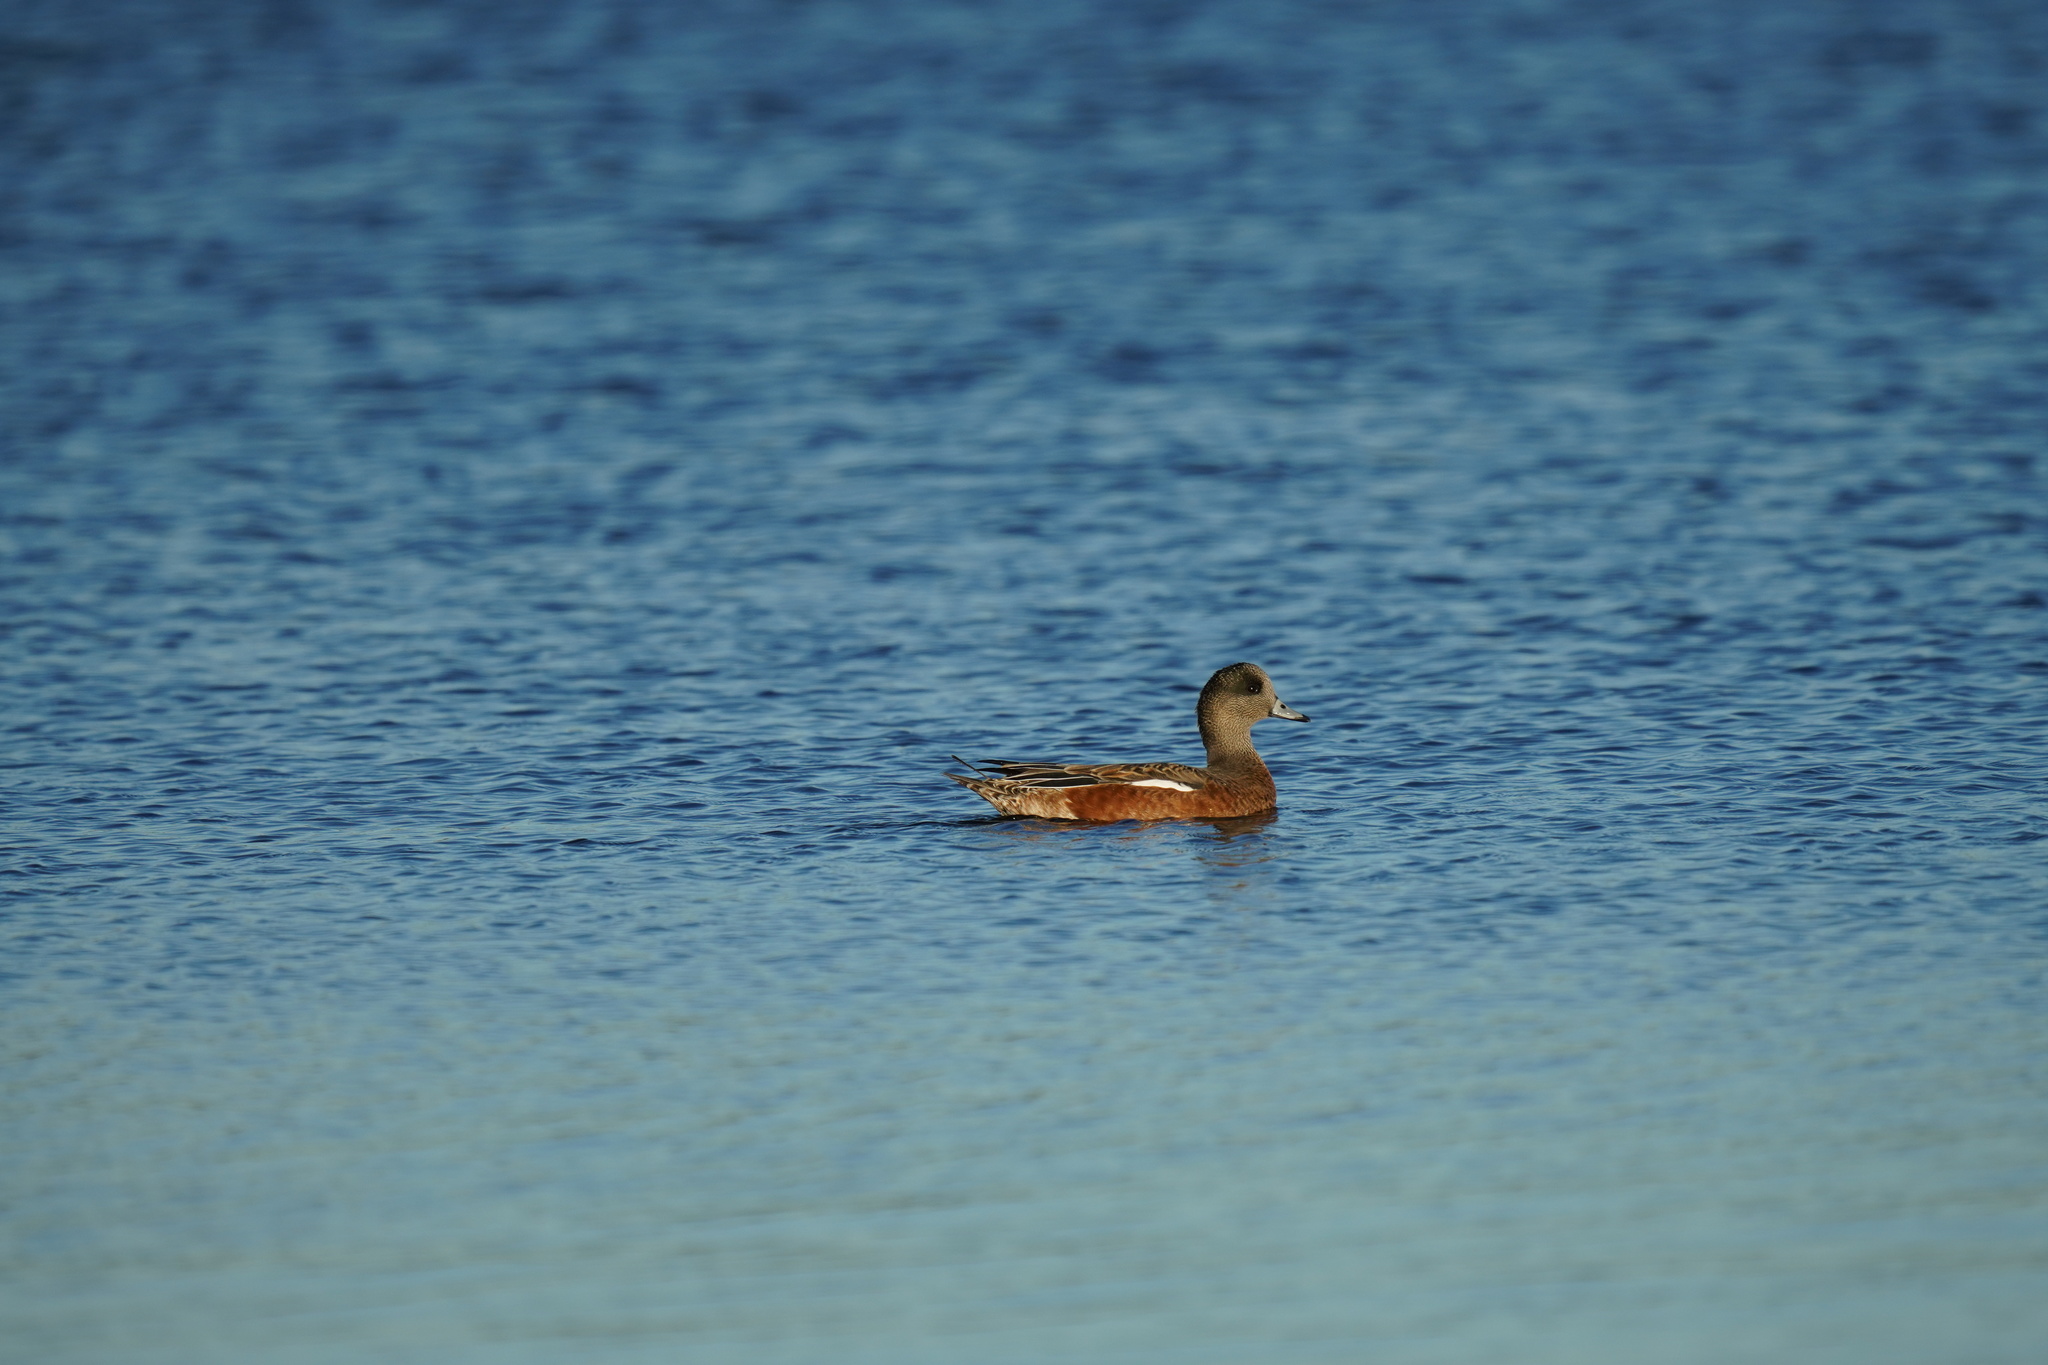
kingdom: Animalia
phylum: Chordata
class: Aves
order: Anseriformes
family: Anatidae
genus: Mareca
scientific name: Mareca americana
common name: American wigeon
